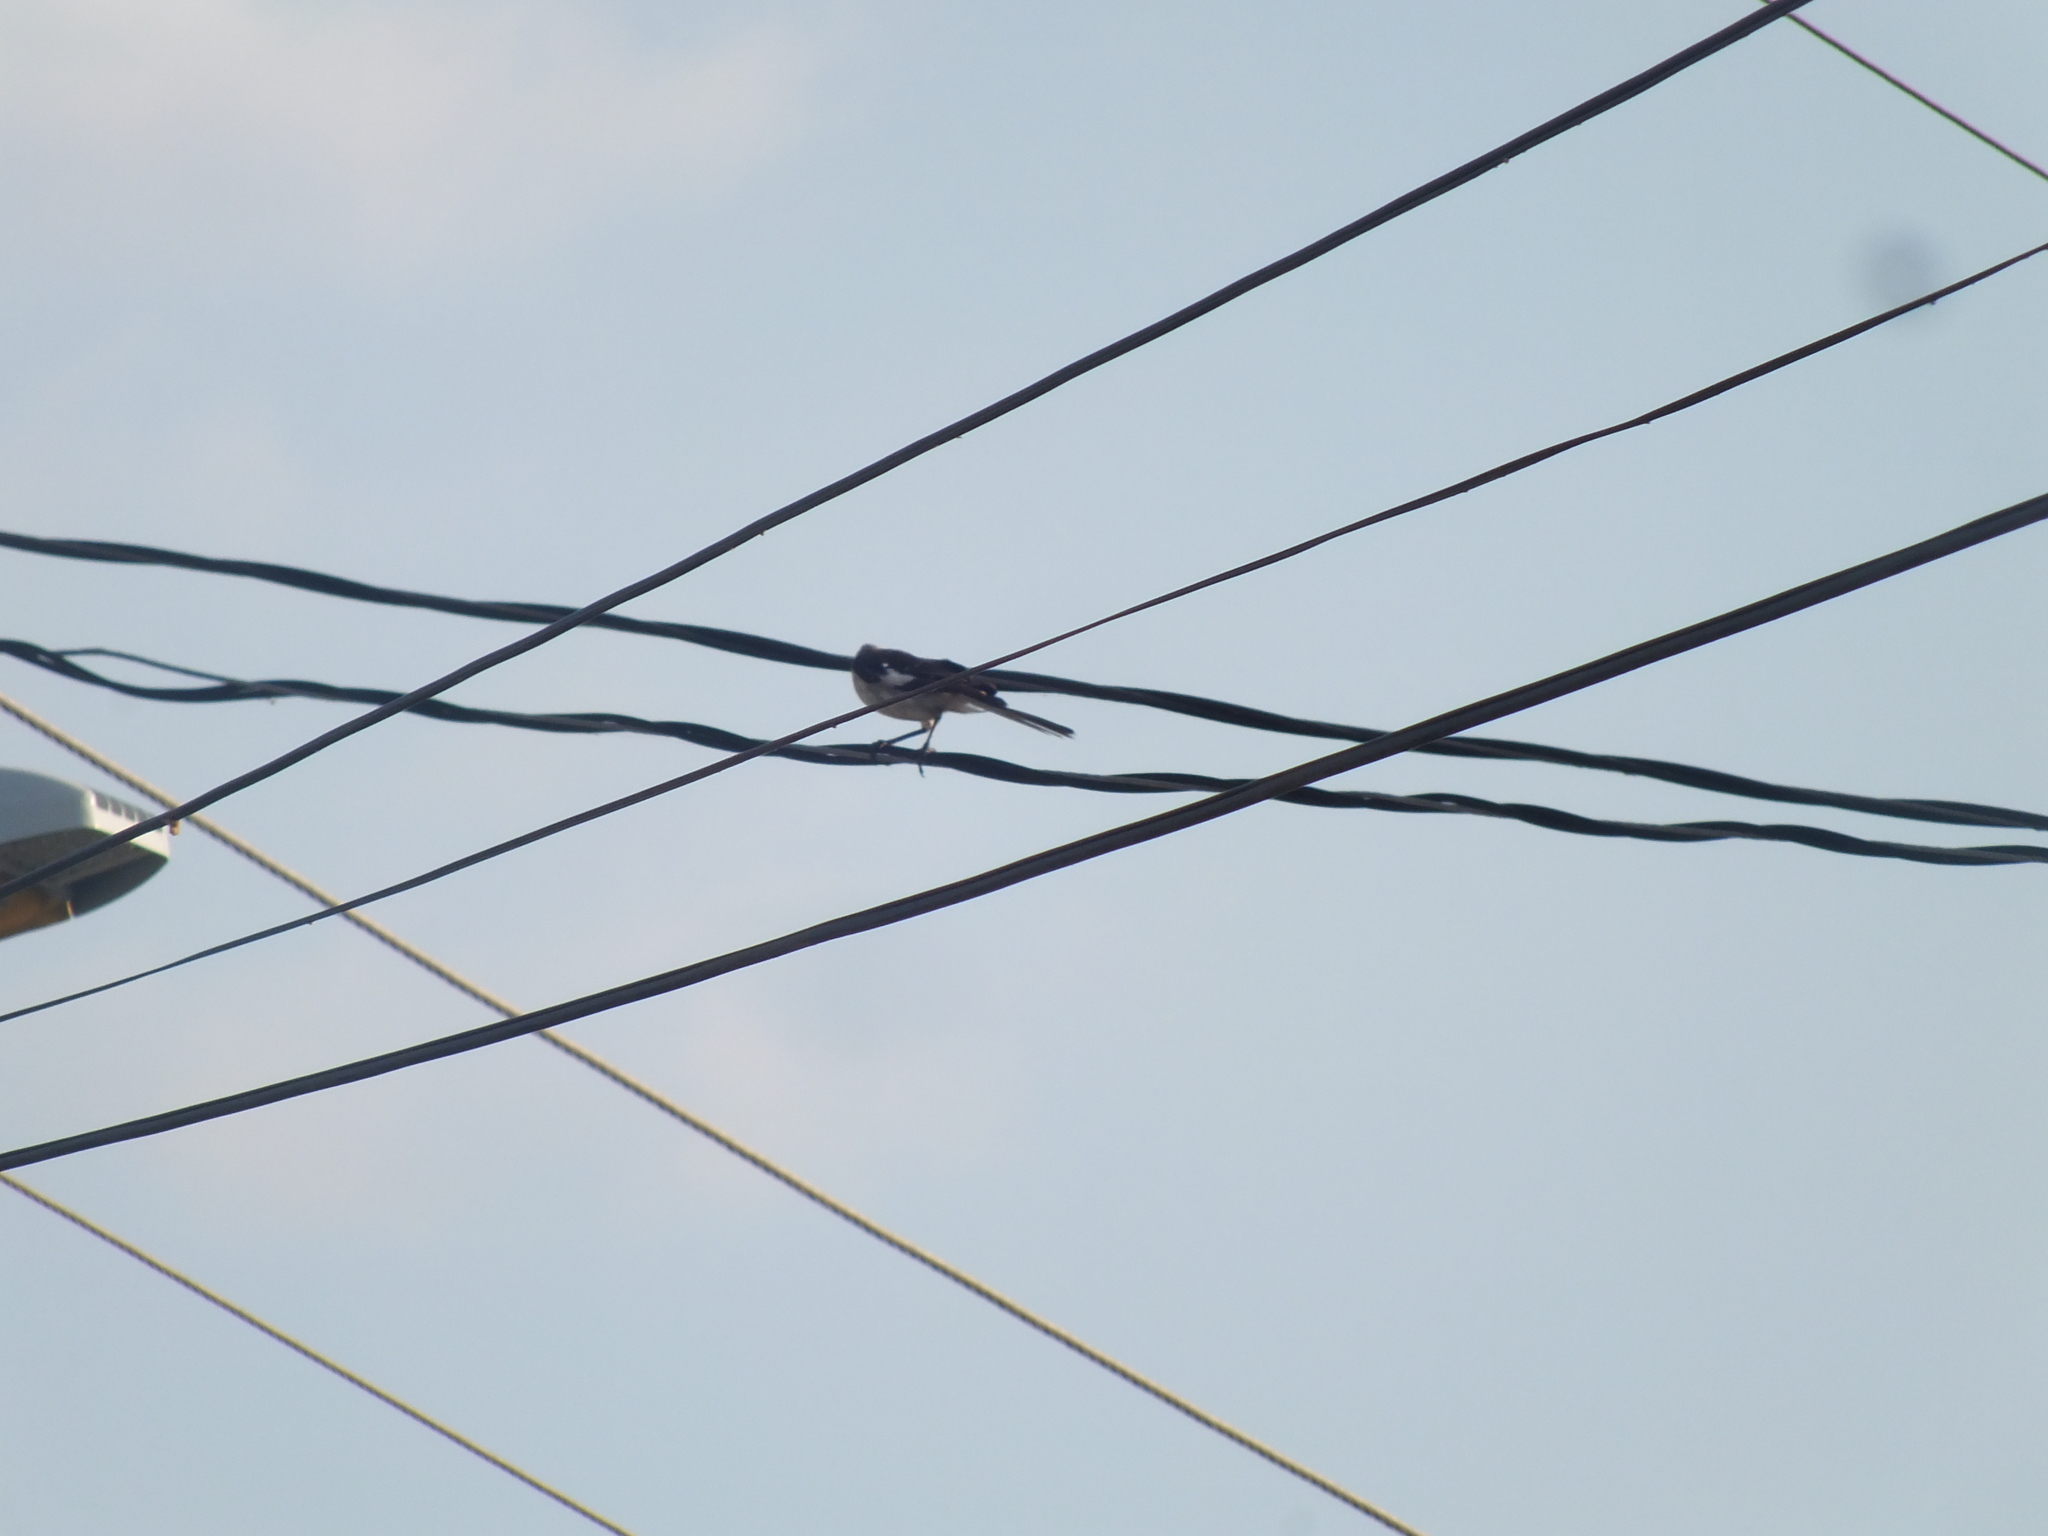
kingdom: Animalia
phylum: Chordata
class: Aves
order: Passeriformes
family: Mimidae
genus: Mimus
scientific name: Mimus polyglottos
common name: Northern mockingbird
